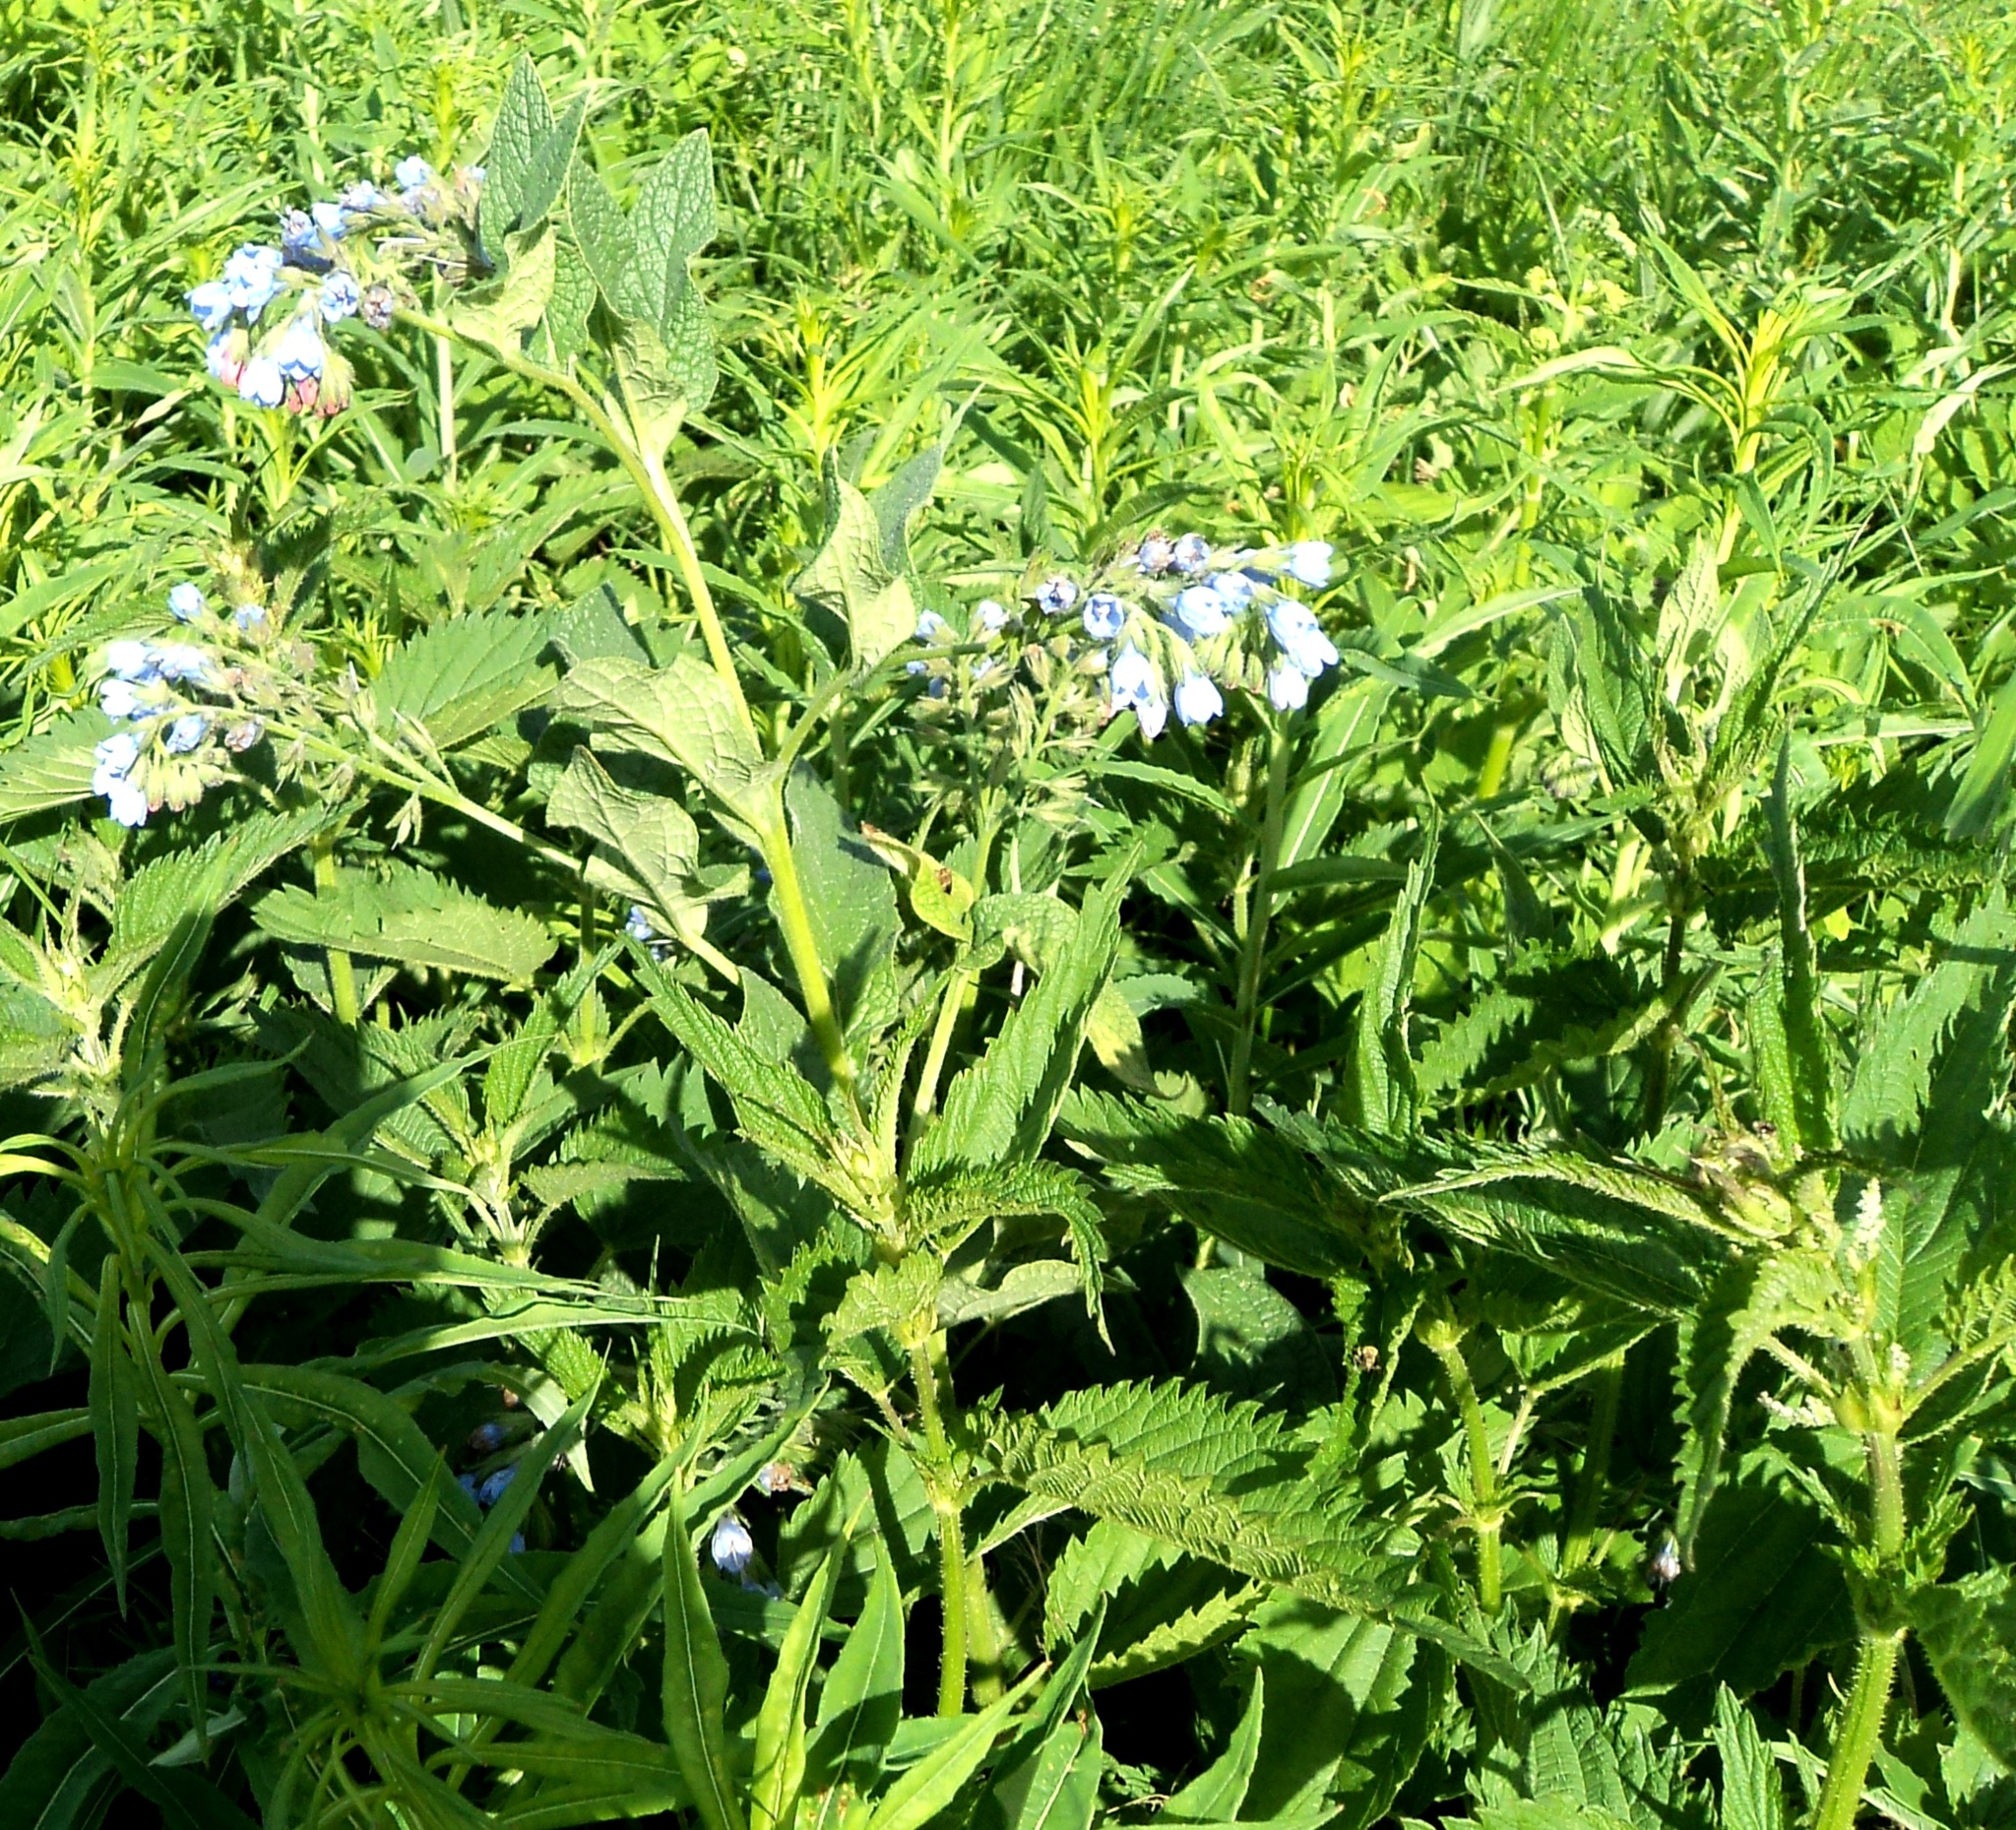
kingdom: Plantae
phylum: Tracheophyta
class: Magnoliopsida
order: Boraginales
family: Boraginaceae
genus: Symphytum
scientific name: Symphytum caucasicum
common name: Caucasian comfrey
